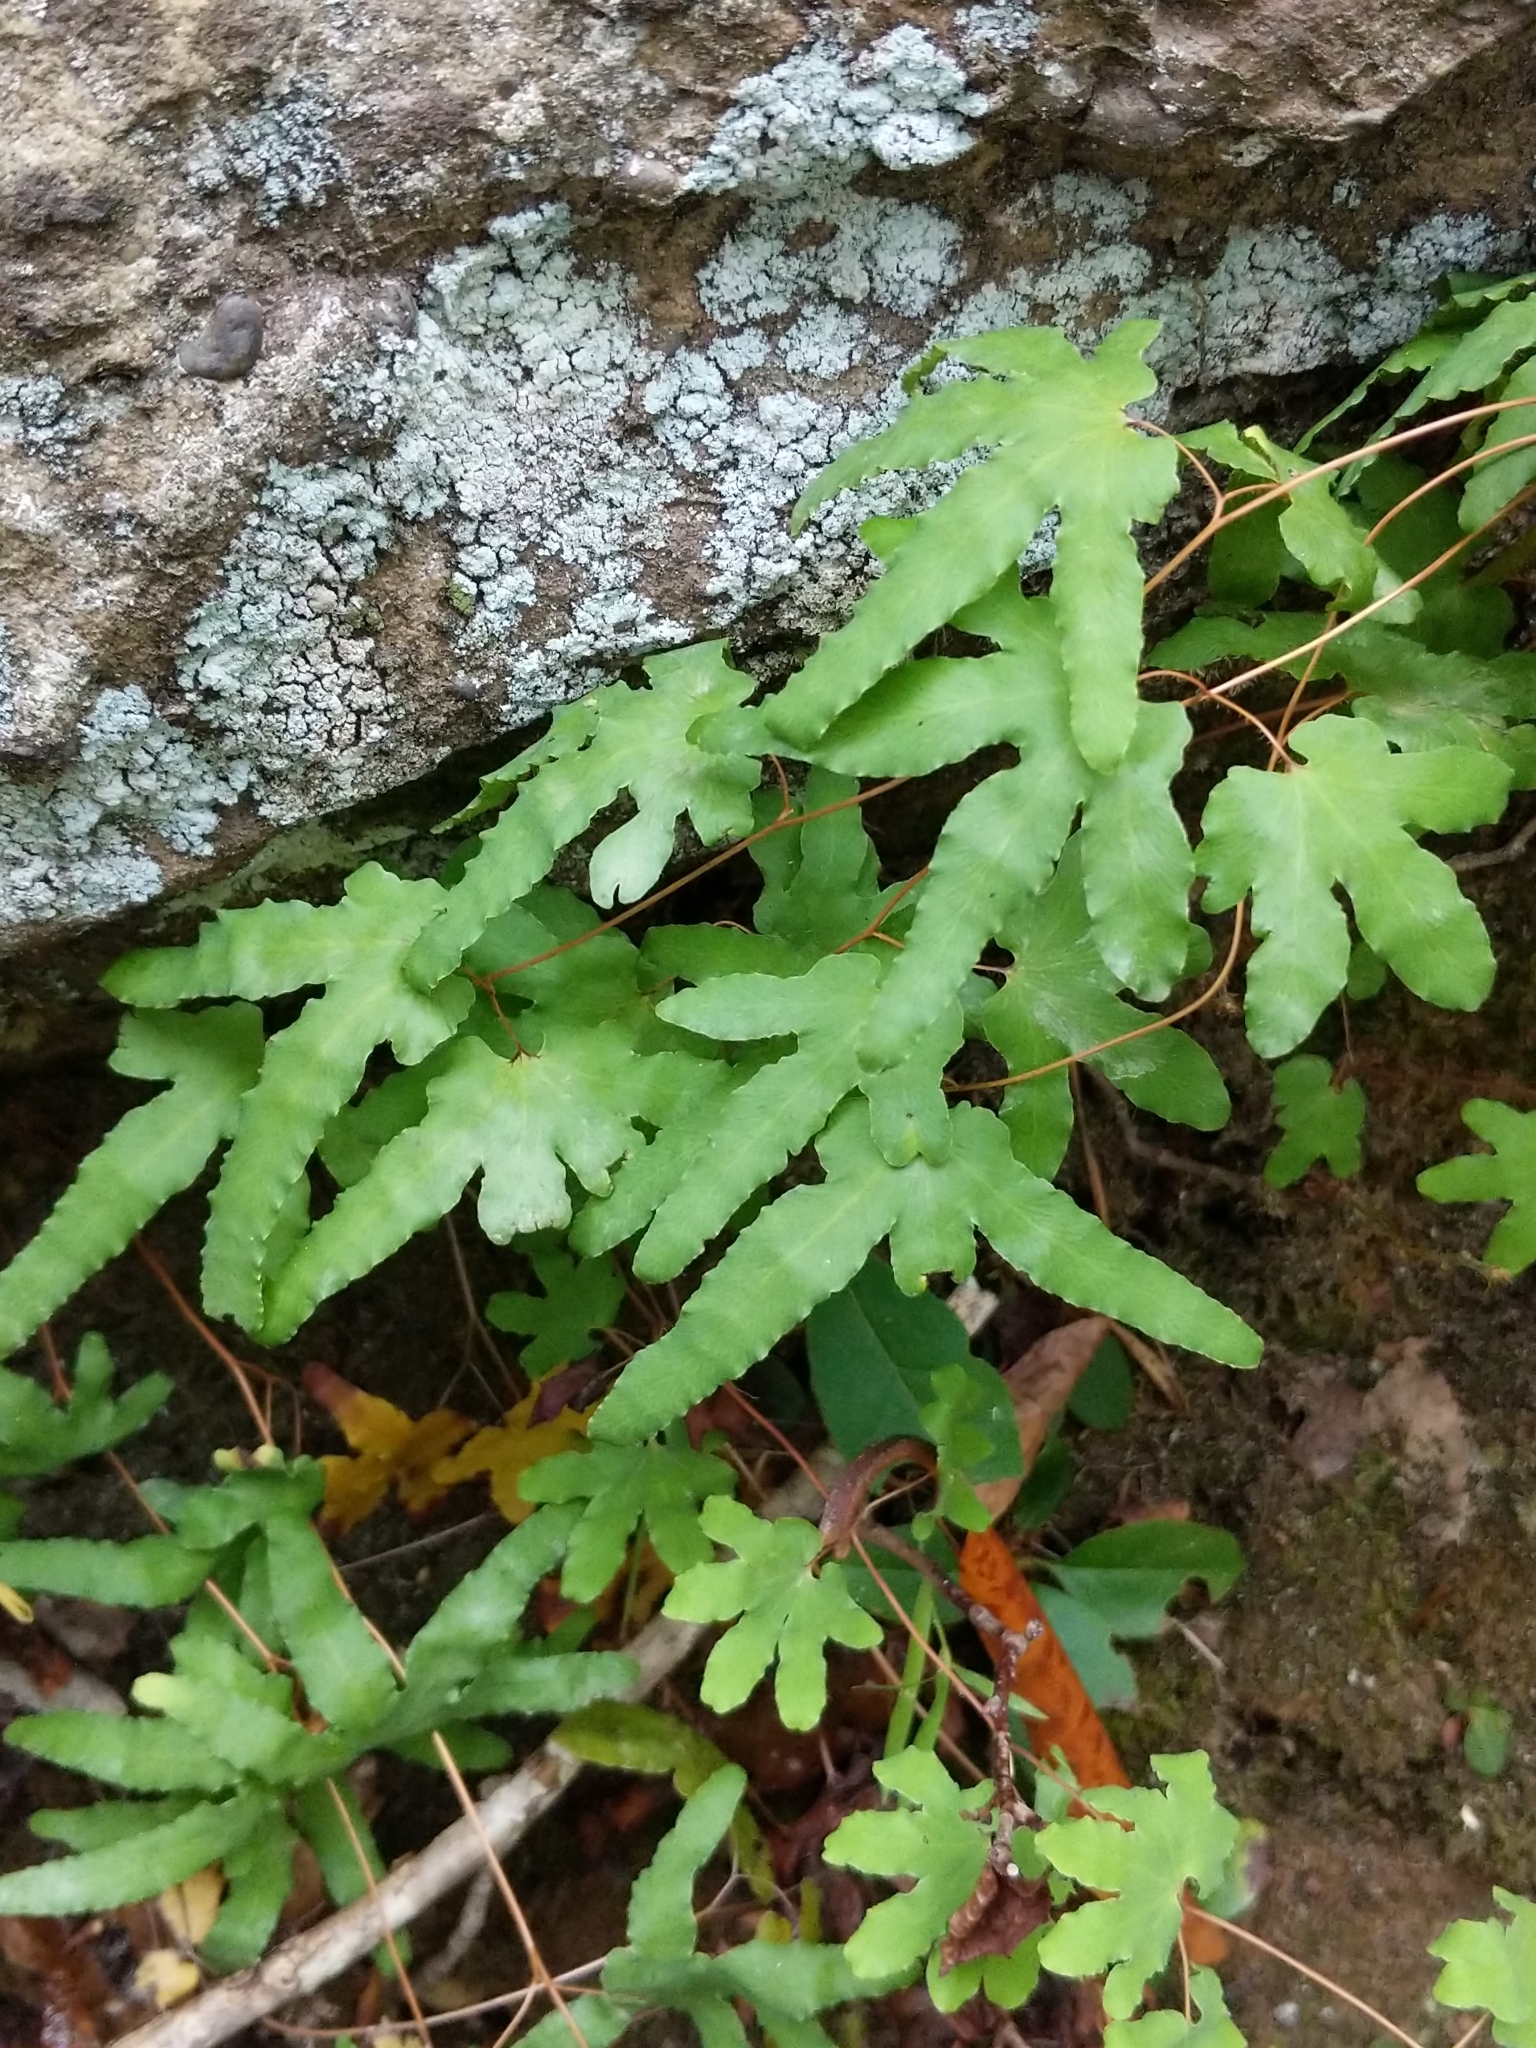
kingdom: Plantae
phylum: Tracheophyta
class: Polypodiopsida
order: Schizaeales
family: Lygodiaceae
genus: Lygodium
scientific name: Lygodium palmatum
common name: American climbing fern
